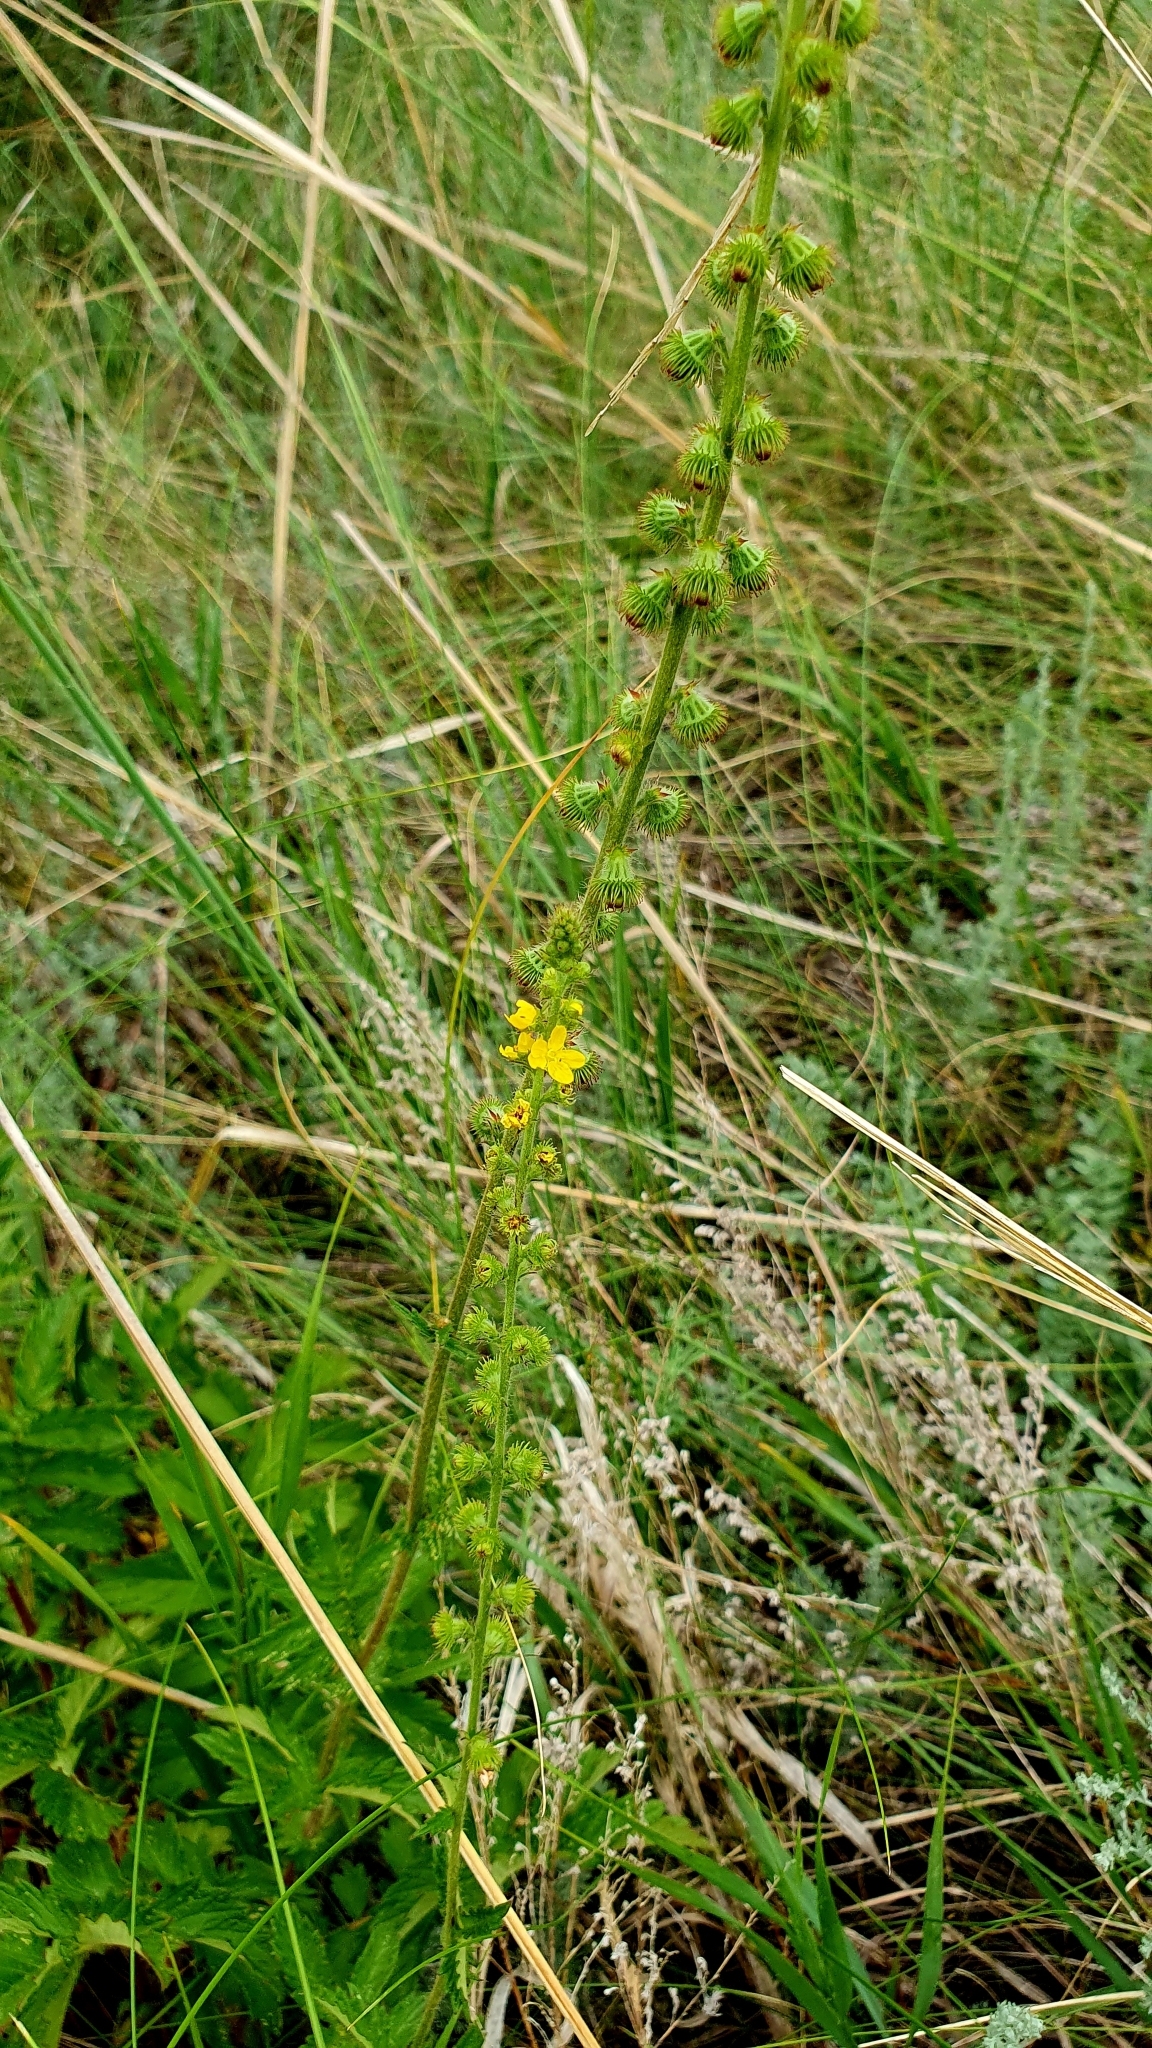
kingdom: Plantae
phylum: Tracheophyta
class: Magnoliopsida
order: Rosales
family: Rosaceae
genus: Agrimonia
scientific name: Agrimonia eupatoria
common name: Agrimony
